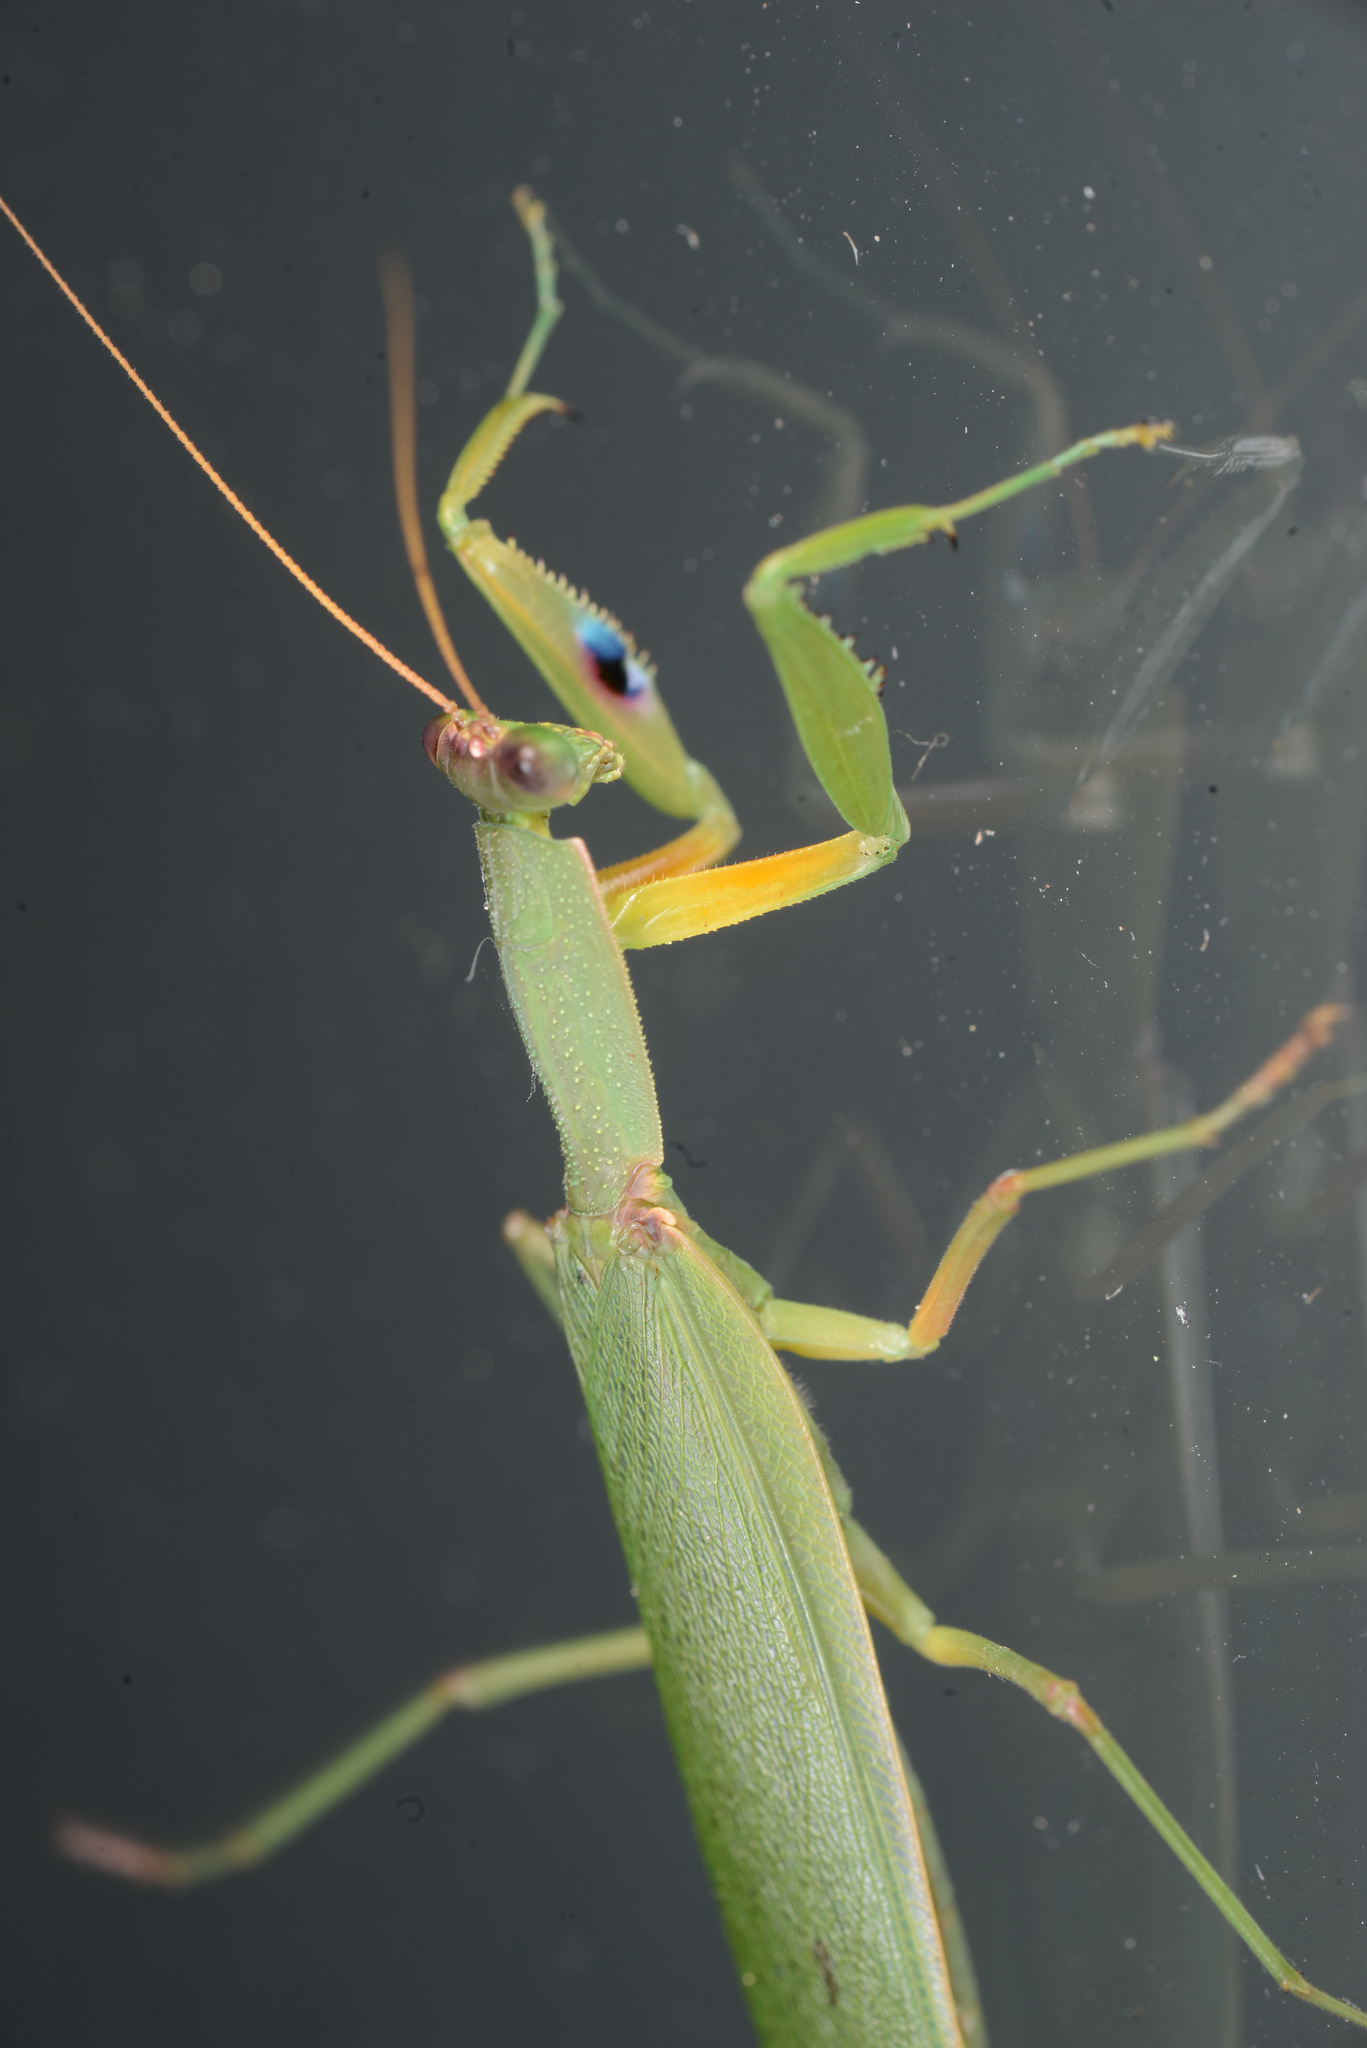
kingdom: Animalia
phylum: Arthropoda
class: Insecta
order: Mantodea
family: Mantidae
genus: Orthodera
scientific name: Orthodera novaezealandiae
